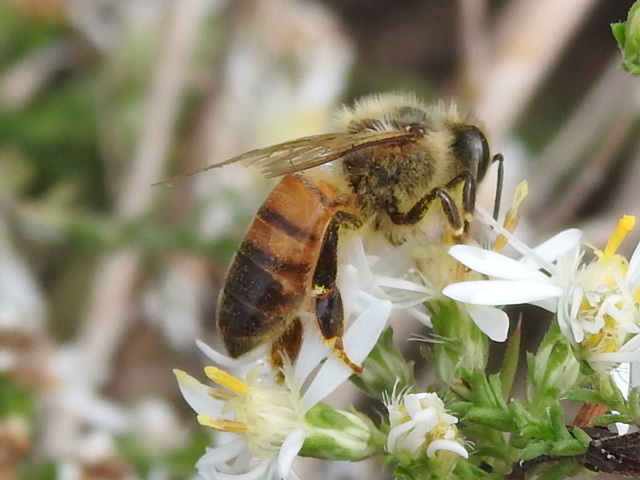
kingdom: Animalia
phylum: Arthropoda
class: Insecta
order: Hymenoptera
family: Apidae
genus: Apis
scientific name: Apis mellifera
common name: Honey bee
